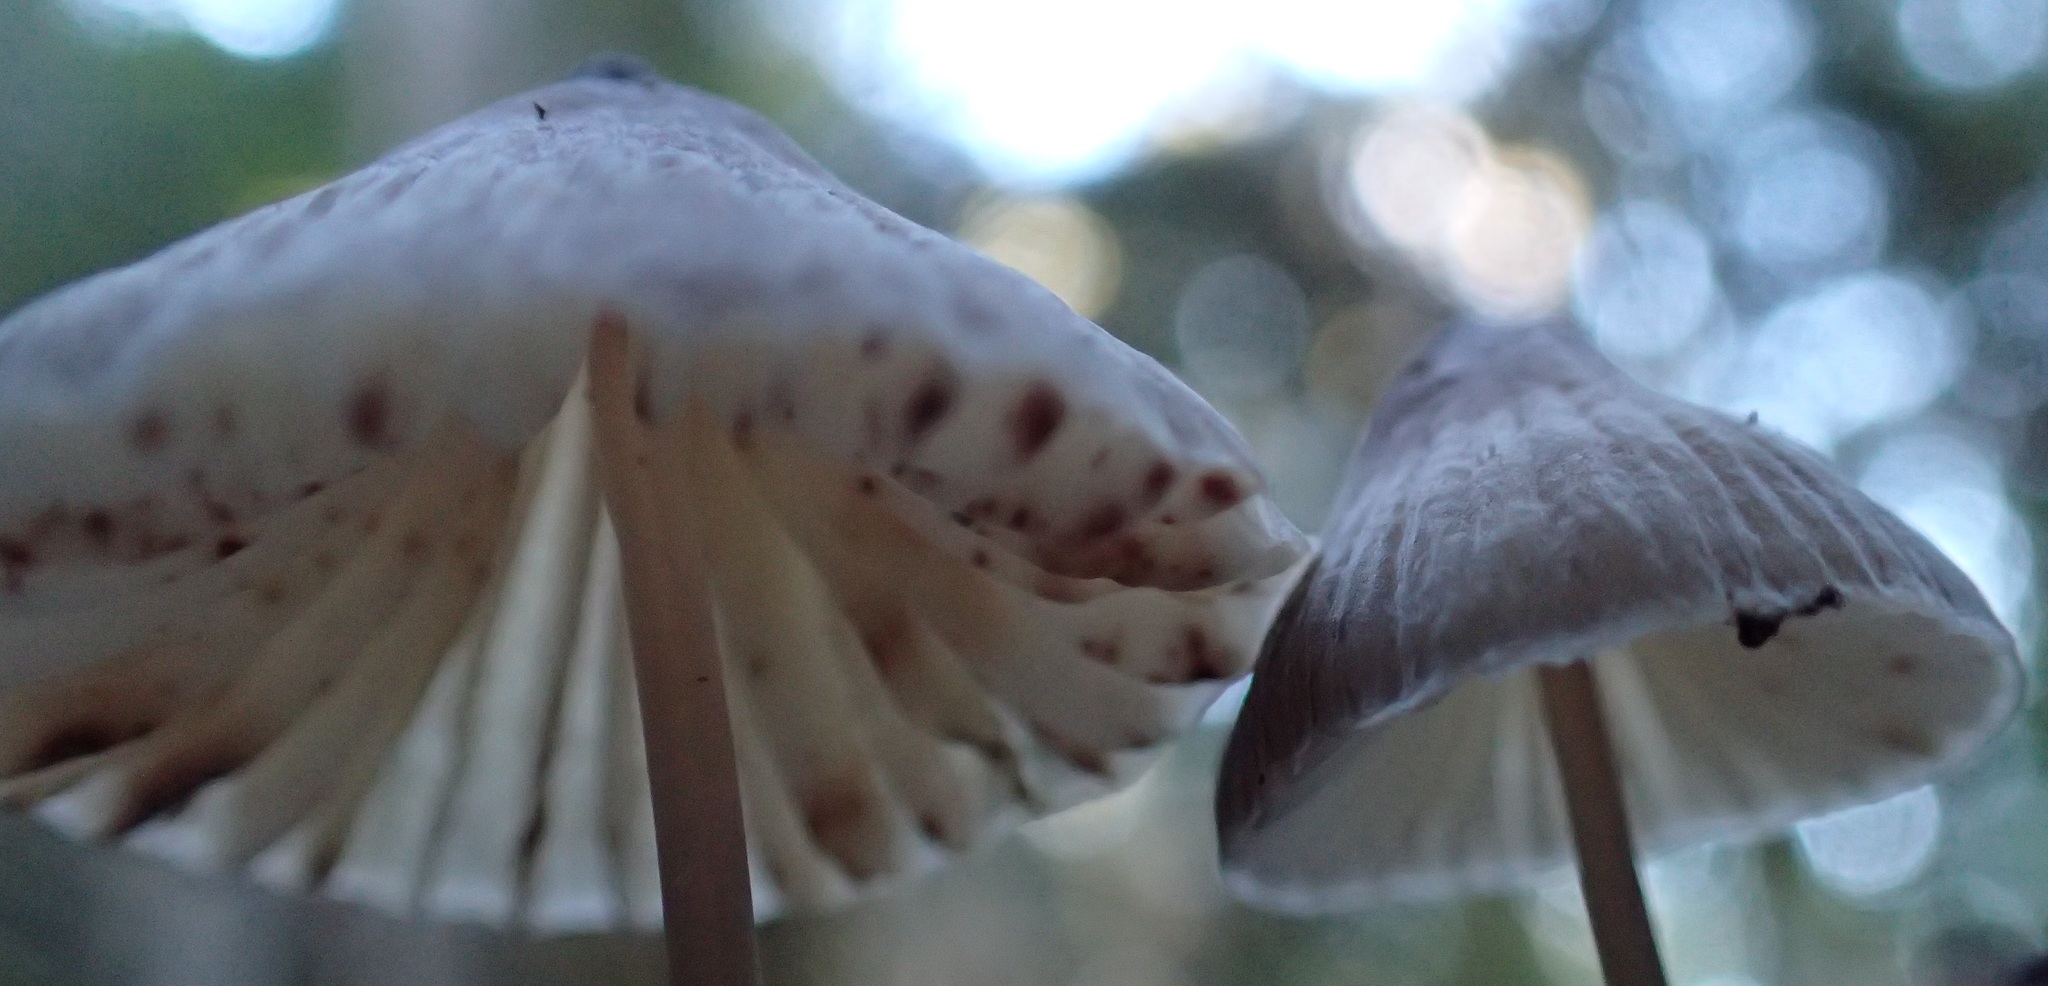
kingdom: Fungi
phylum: Basidiomycota
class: Agaricomycetes
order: Agaricales
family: Mycenaceae
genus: Mycena
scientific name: Mycena cystidiosa
